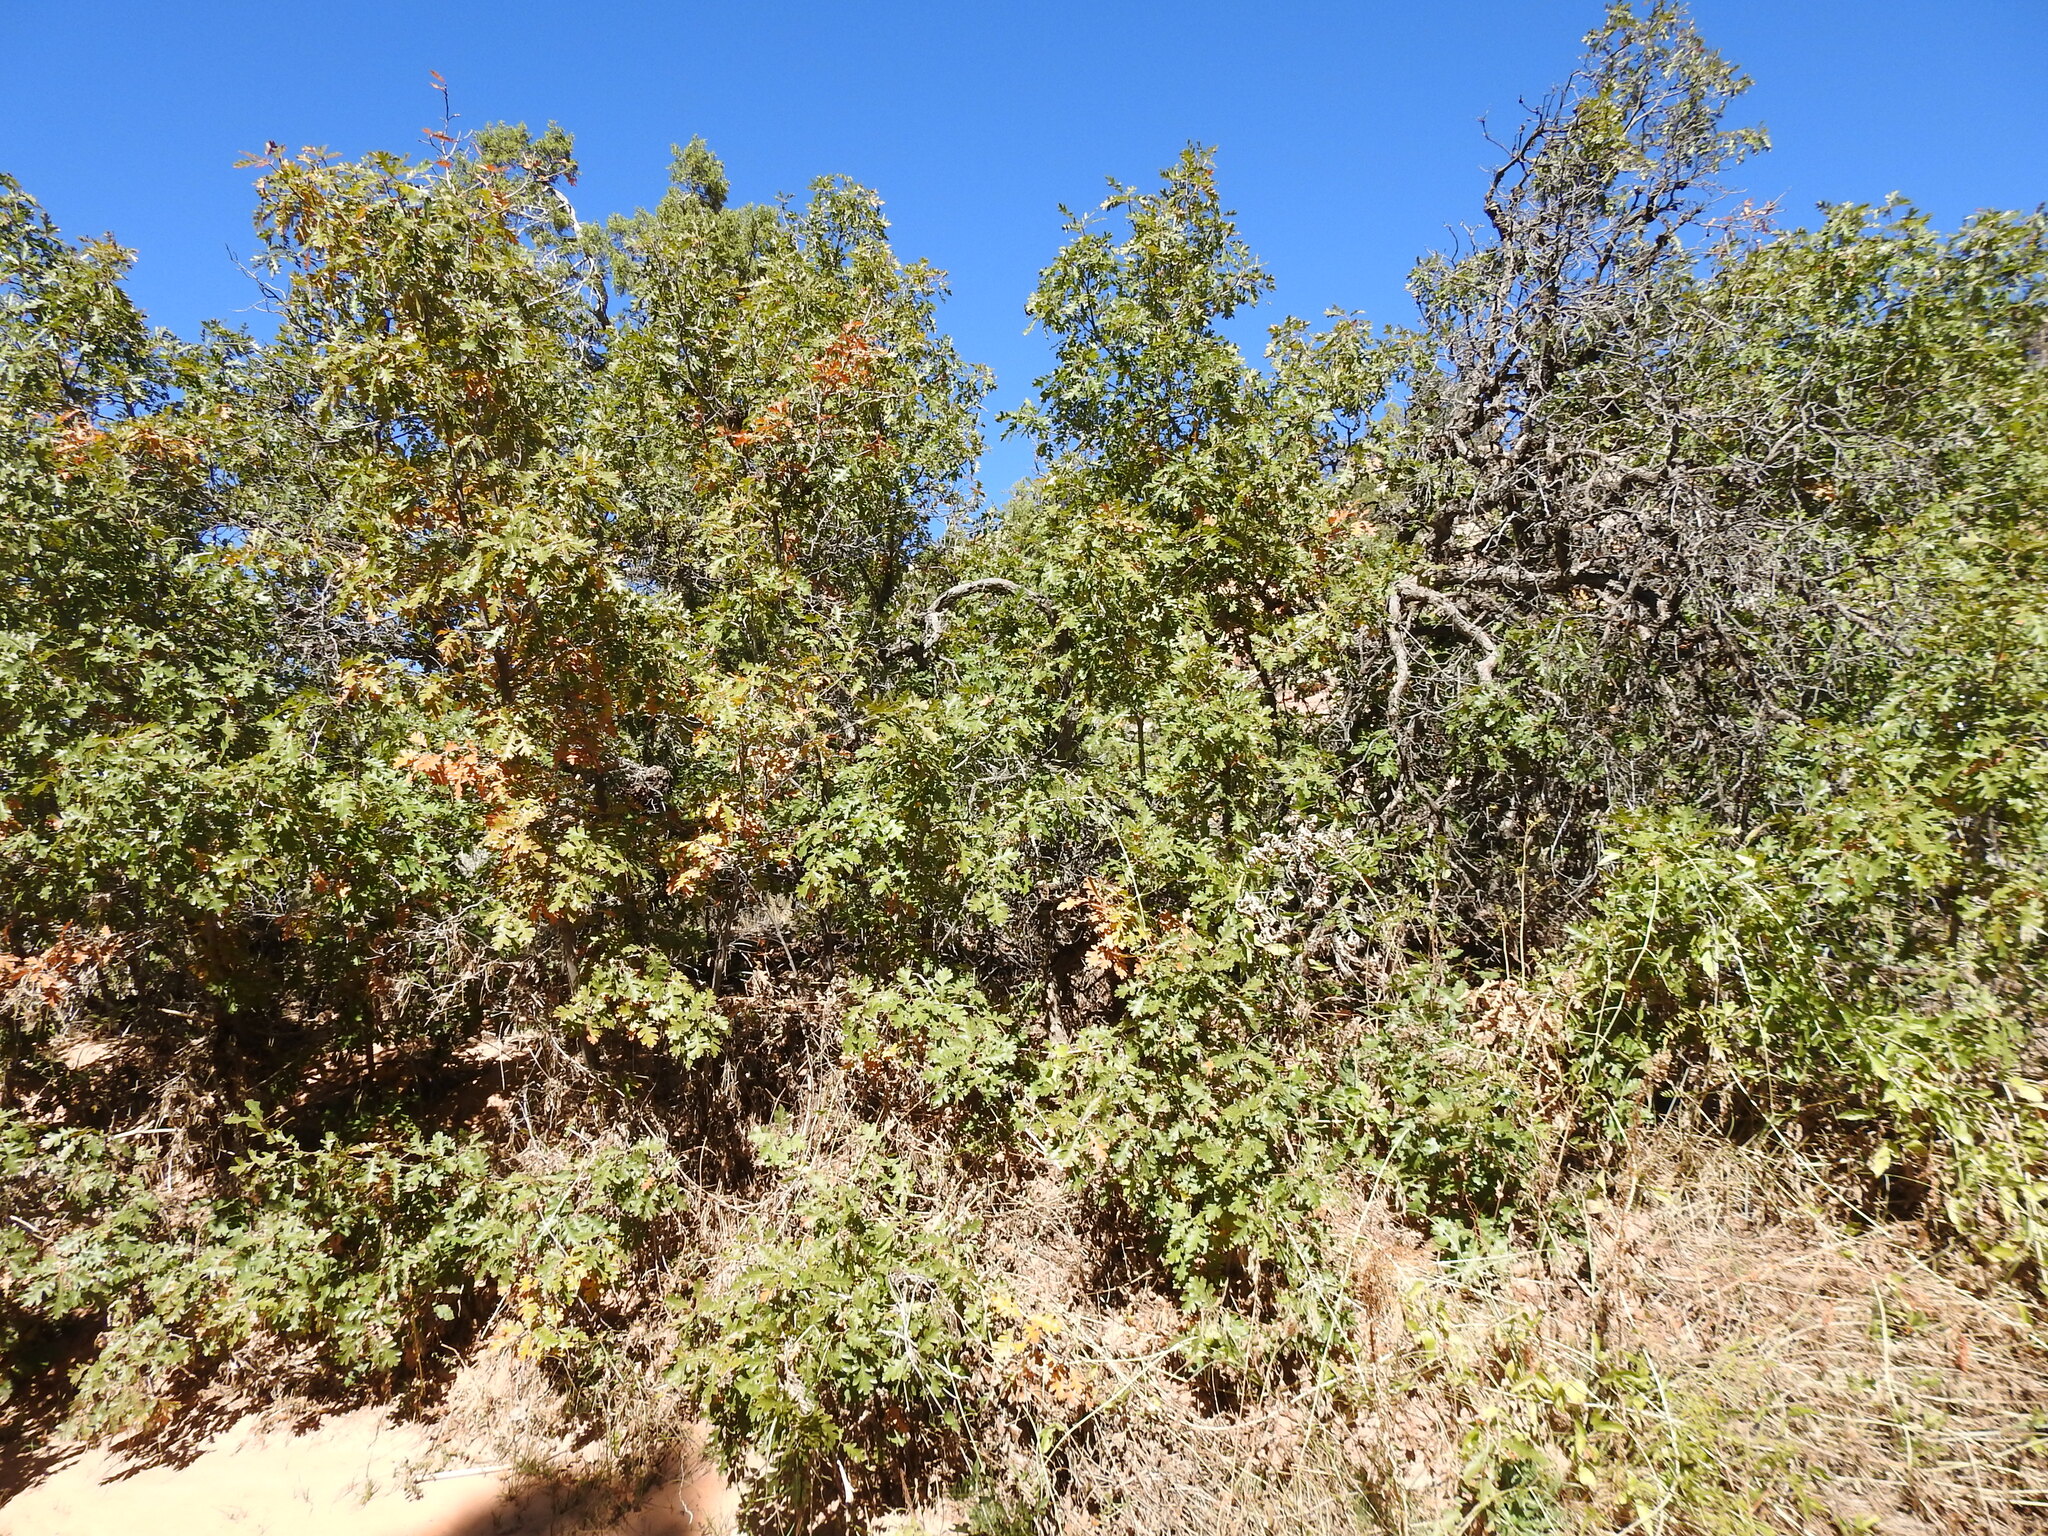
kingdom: Plantae
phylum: Tracheophyta
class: Magnoliopsida
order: Fagales
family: Fagaceae
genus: Quercus
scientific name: Quercus gambelii
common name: Gambel oak
